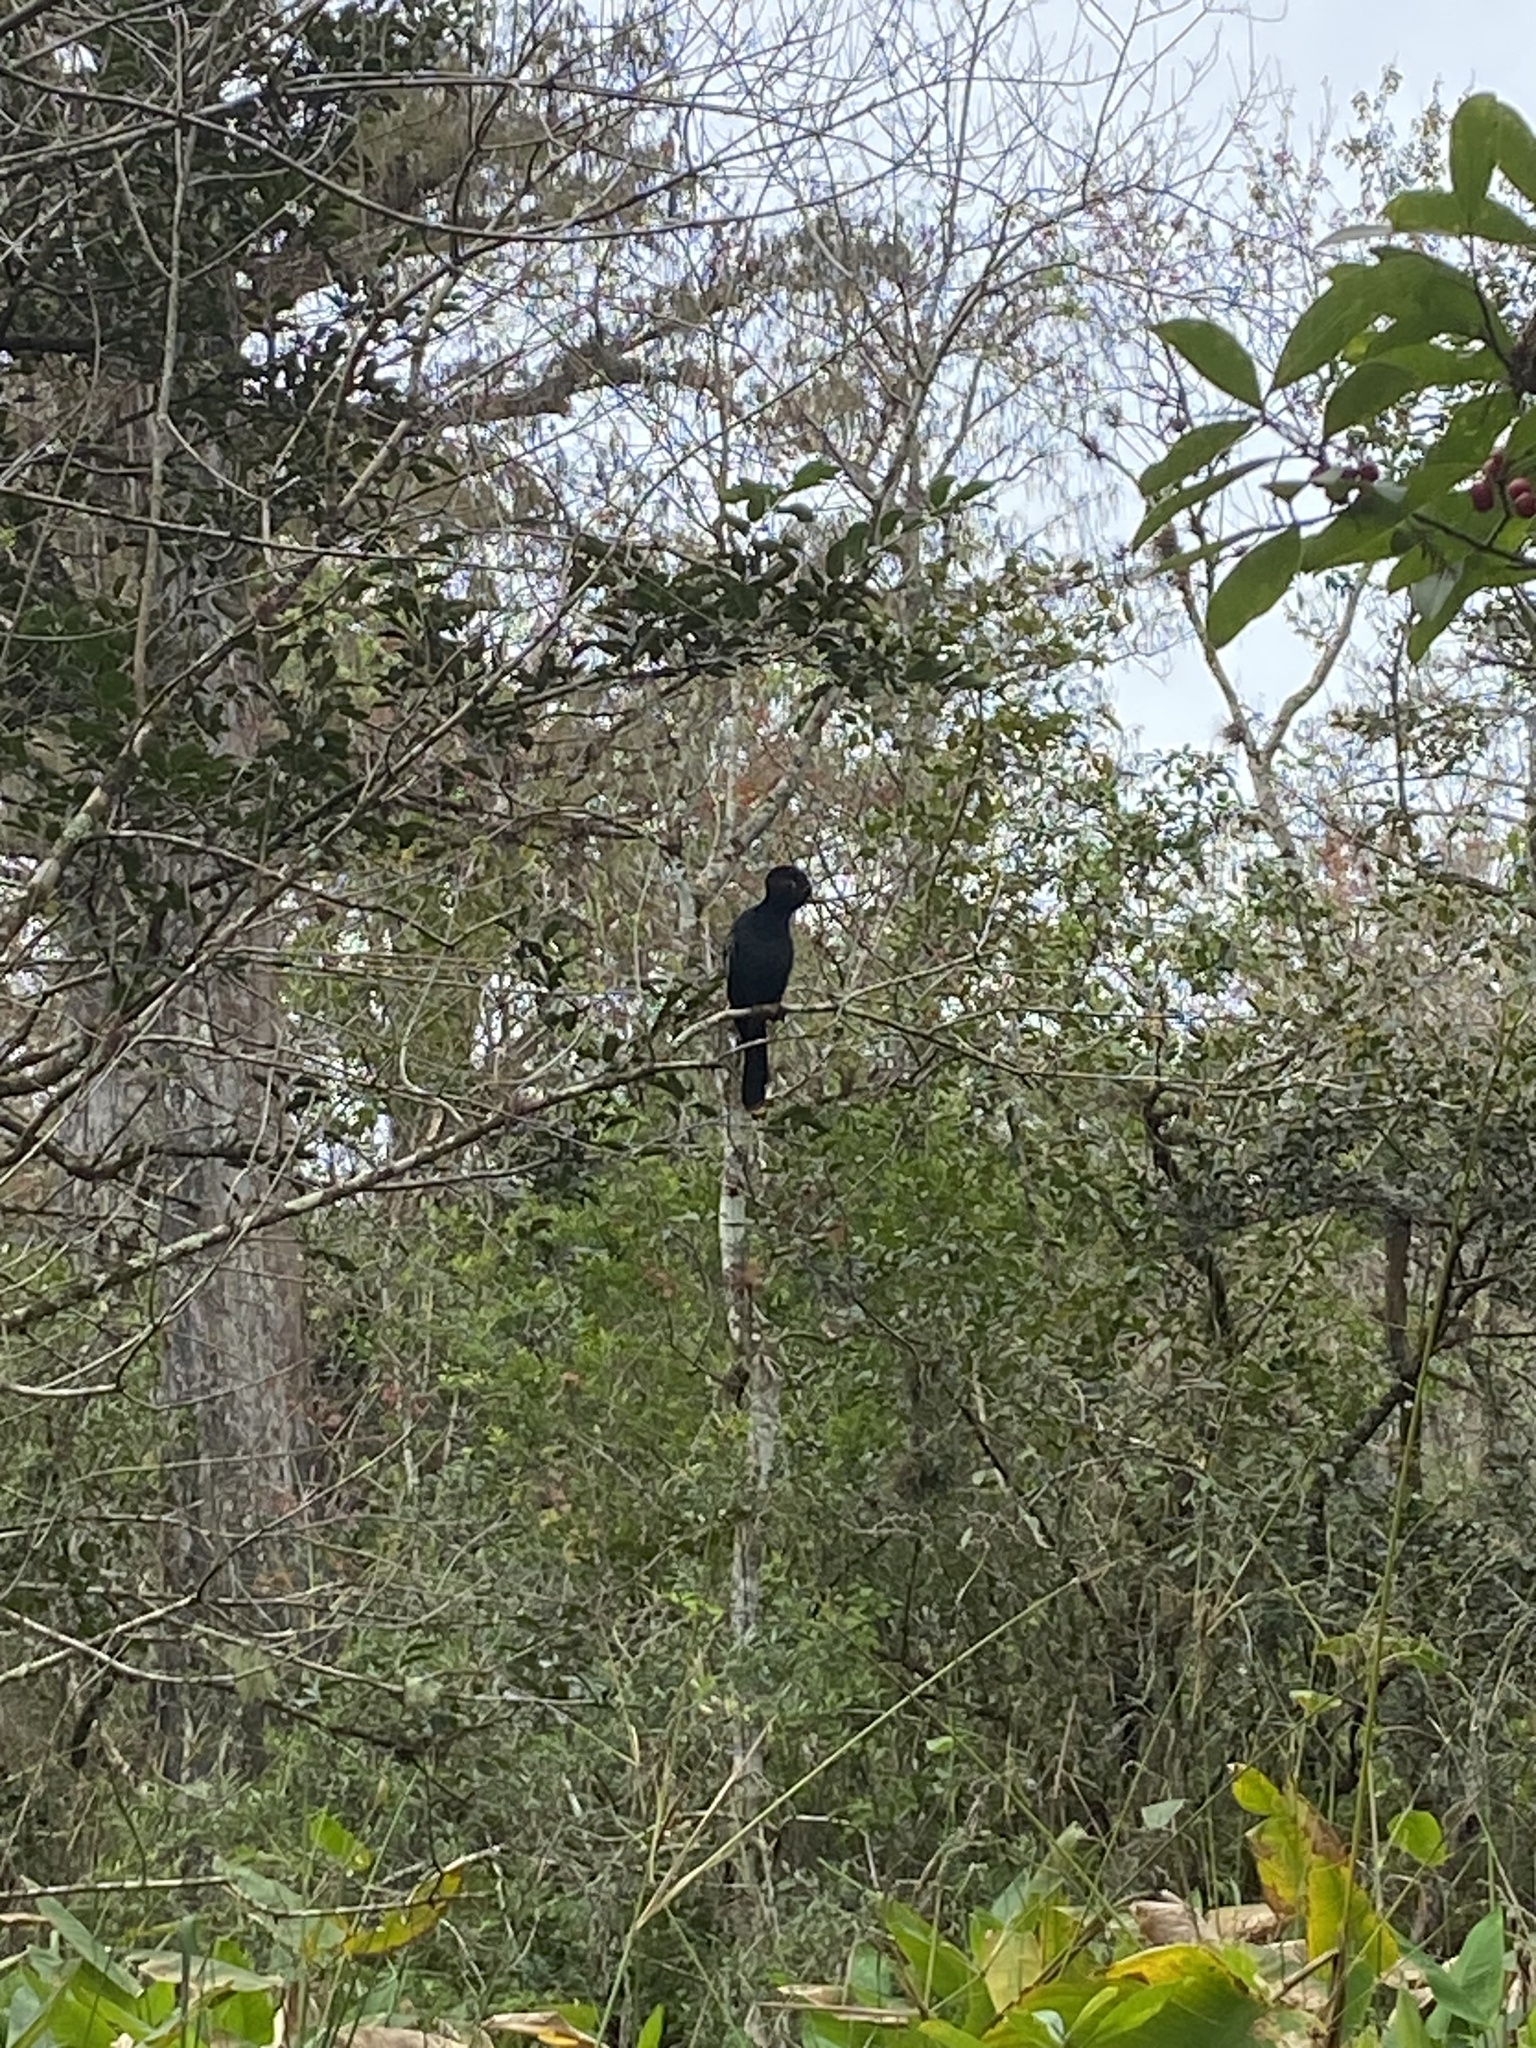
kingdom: Animalia
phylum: Chordata
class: Aves
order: Suliformes
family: Anhingidae
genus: Anhinga
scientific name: Anhinga anhinga
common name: Anhinga
